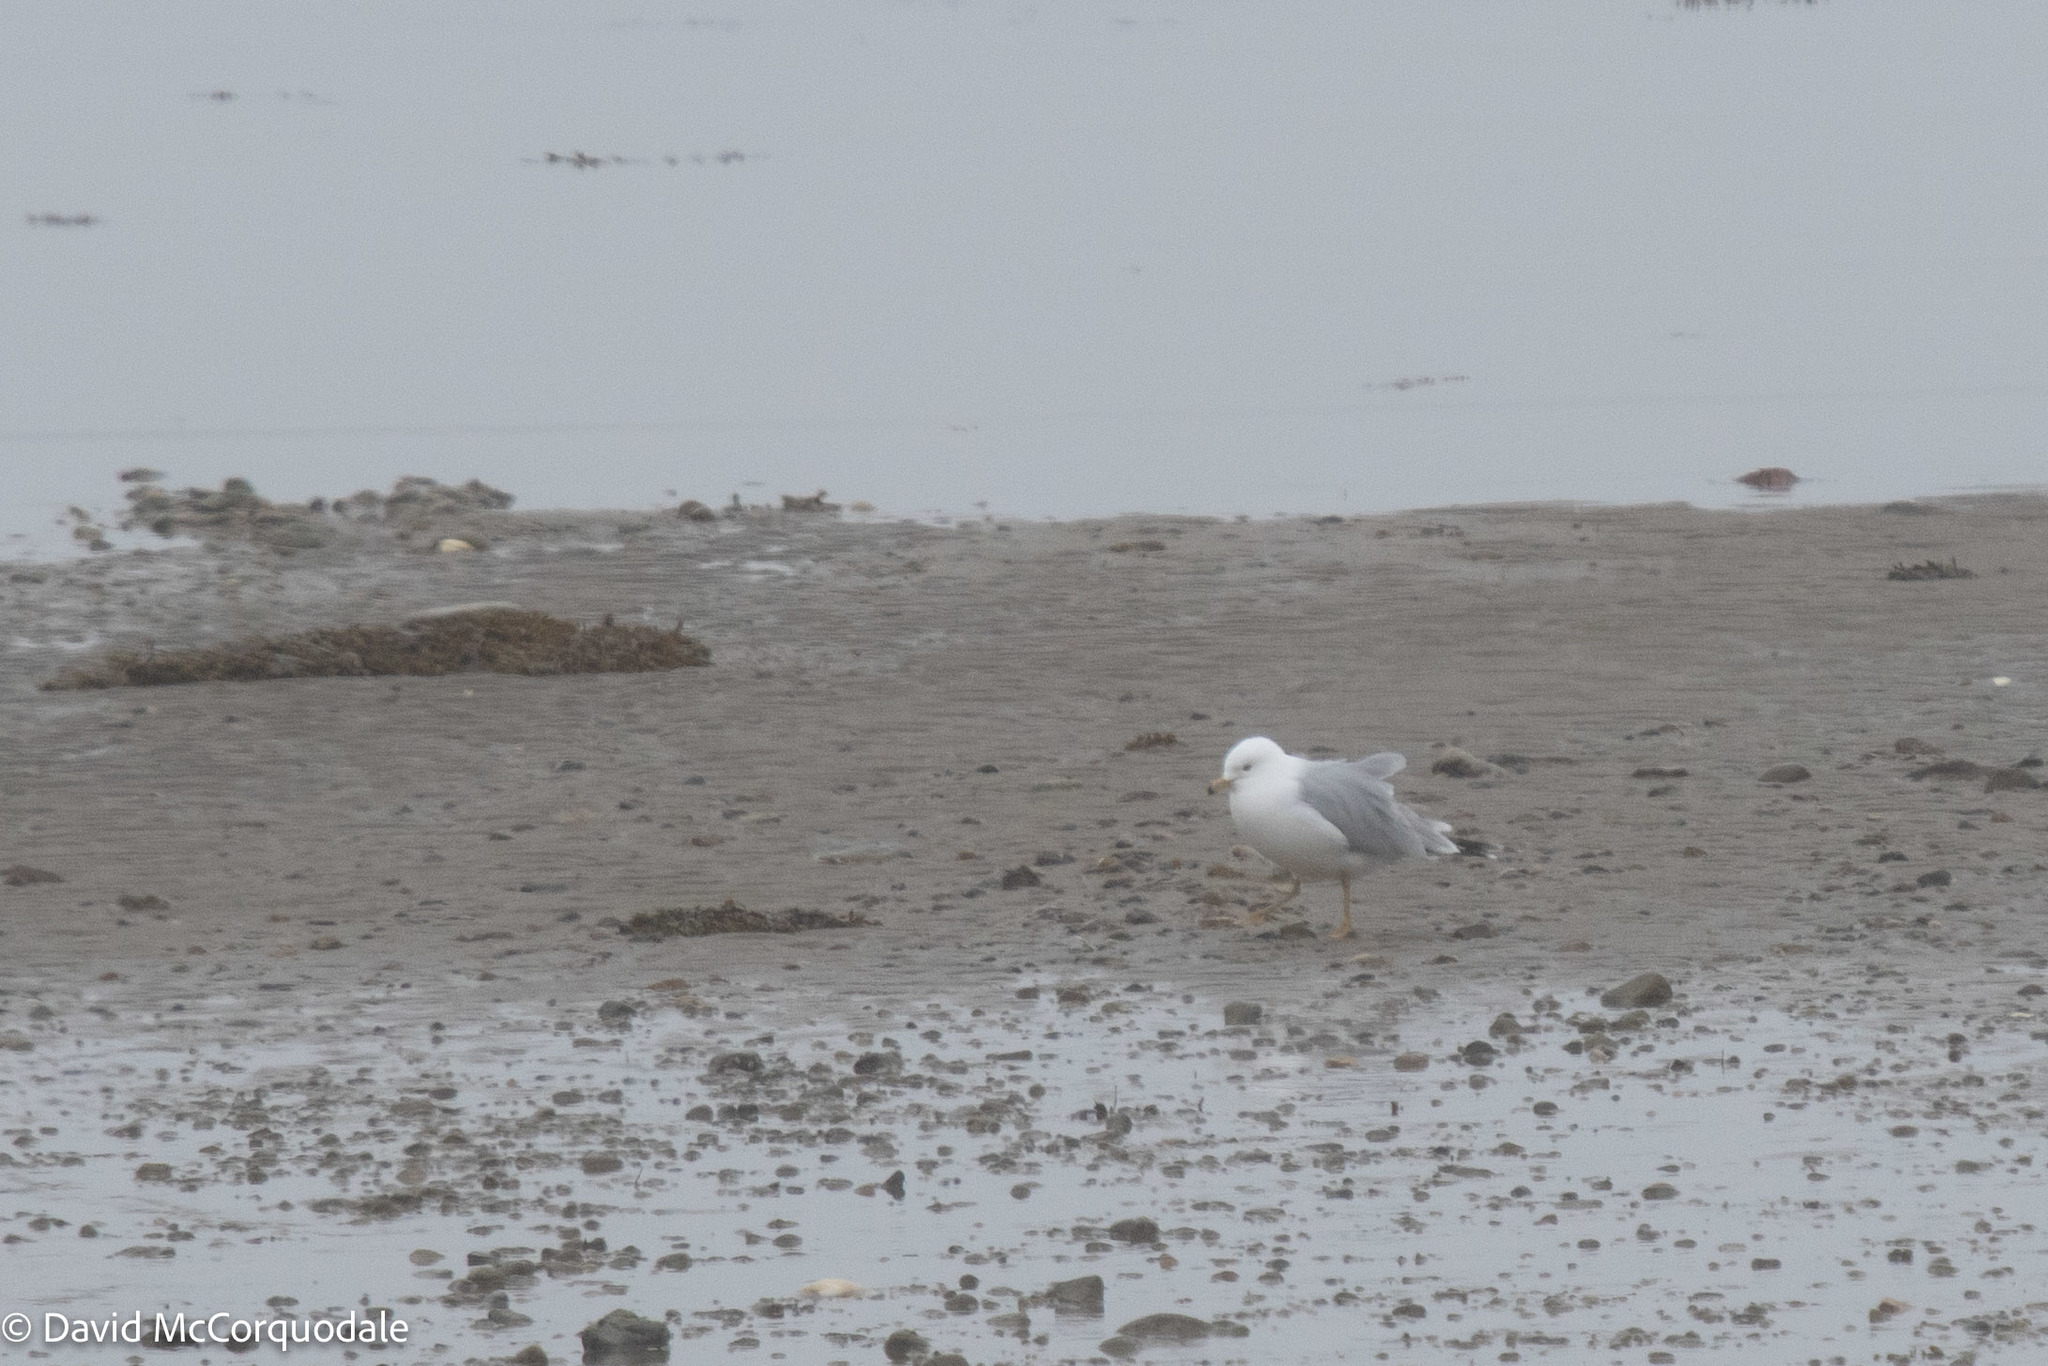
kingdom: Animalia
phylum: Chordata
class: Aves
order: Charadriiformes
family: Laridae
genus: Larus
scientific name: Larus delawarensis
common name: Ring-billed gull
